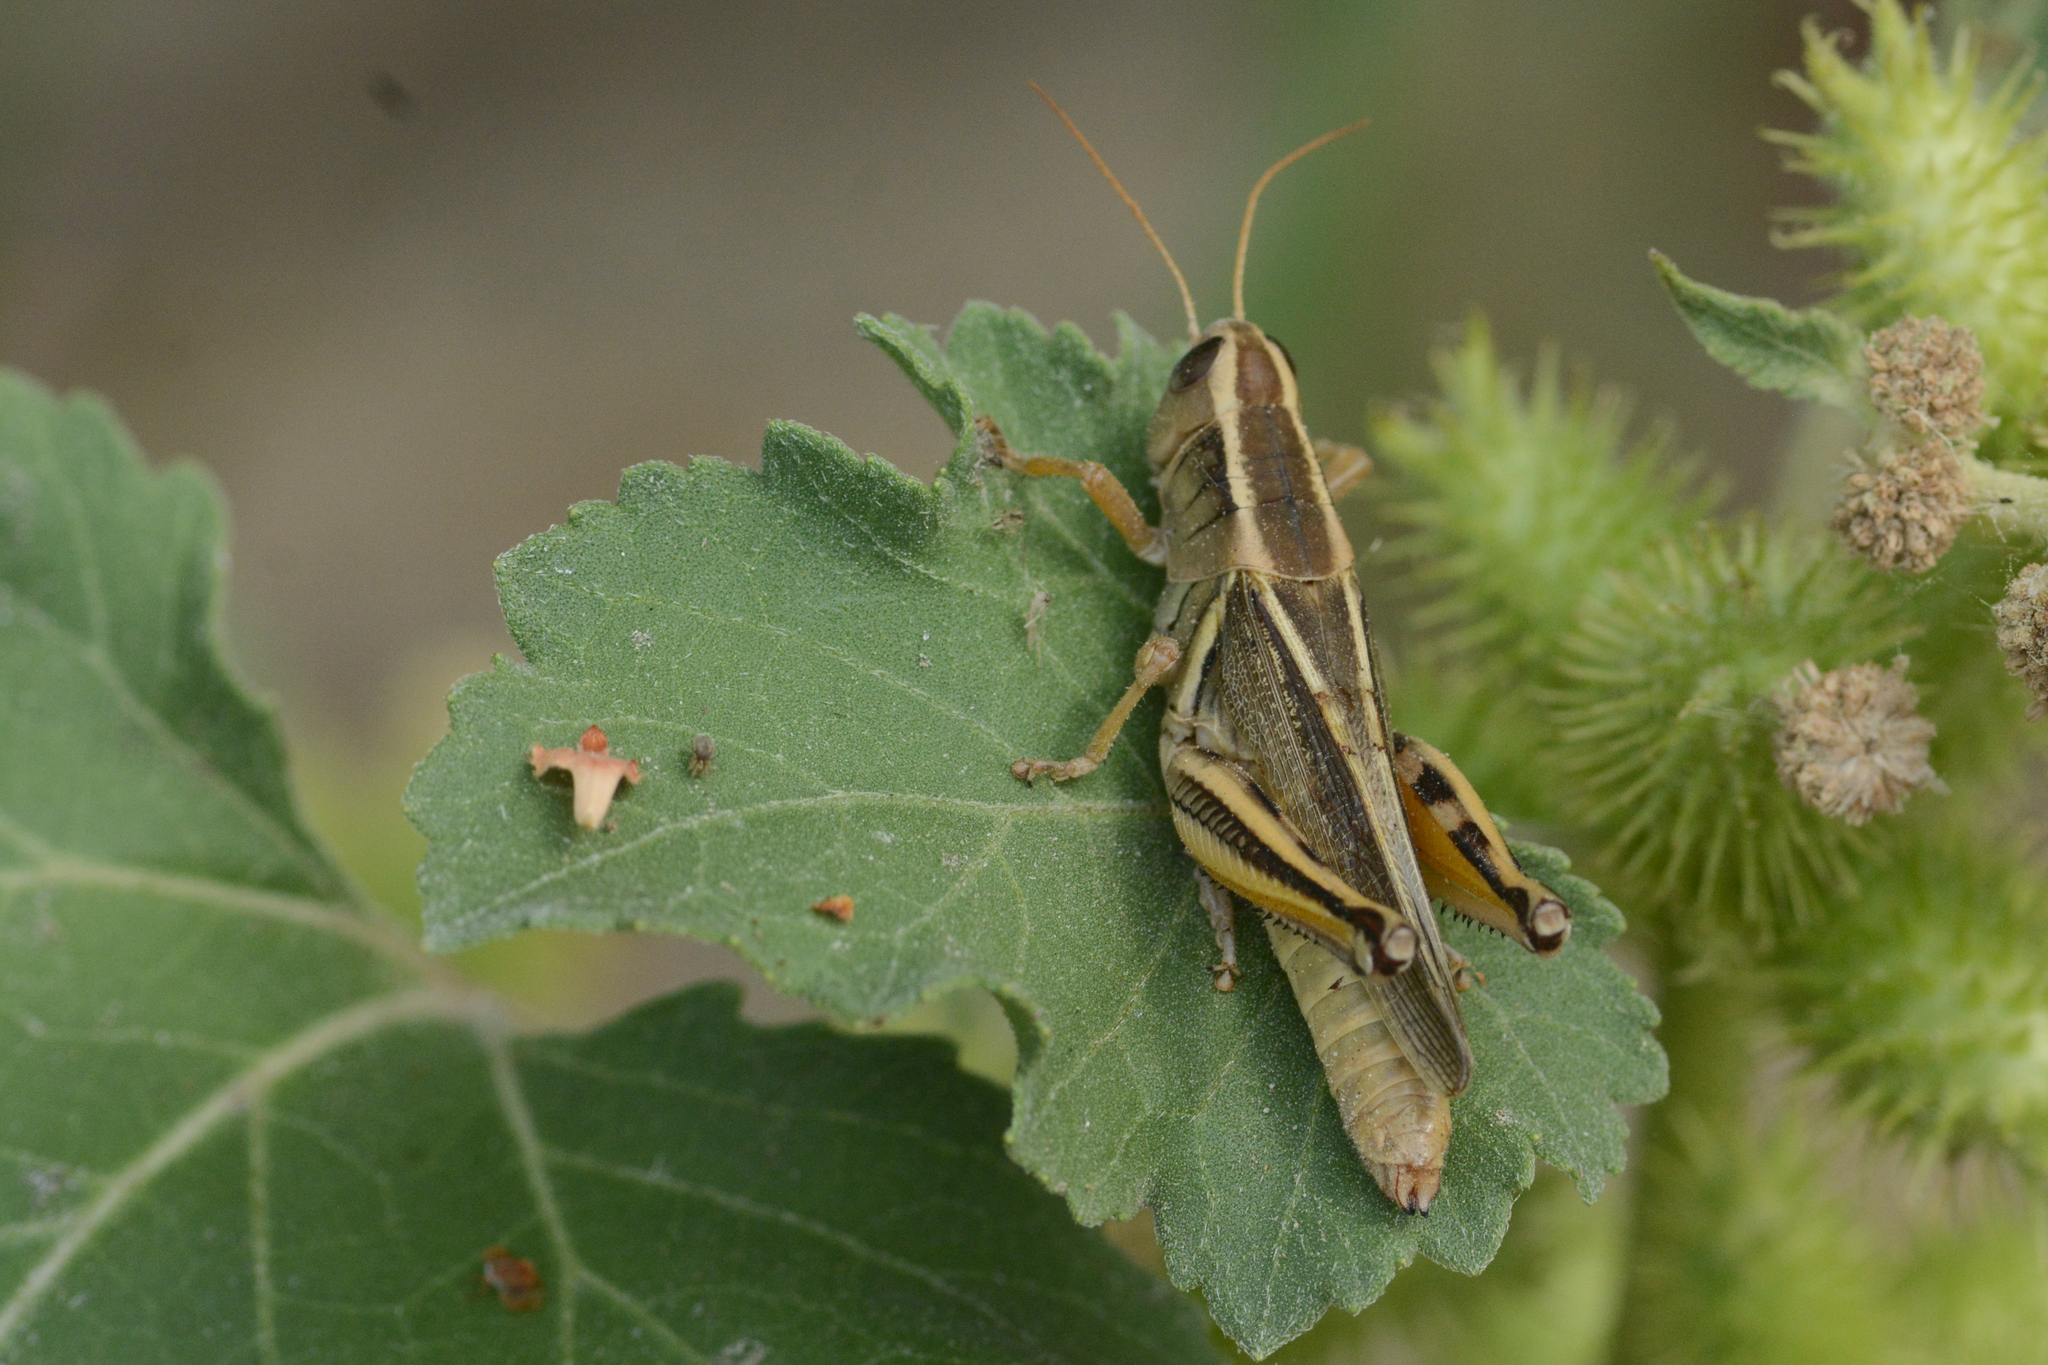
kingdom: Animalia
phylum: Arthropoda
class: Insecta
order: Orthoptera
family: Acrididae
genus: Melanoplus
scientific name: Melanoplus bivittatus
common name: Two-striped grasshopper
